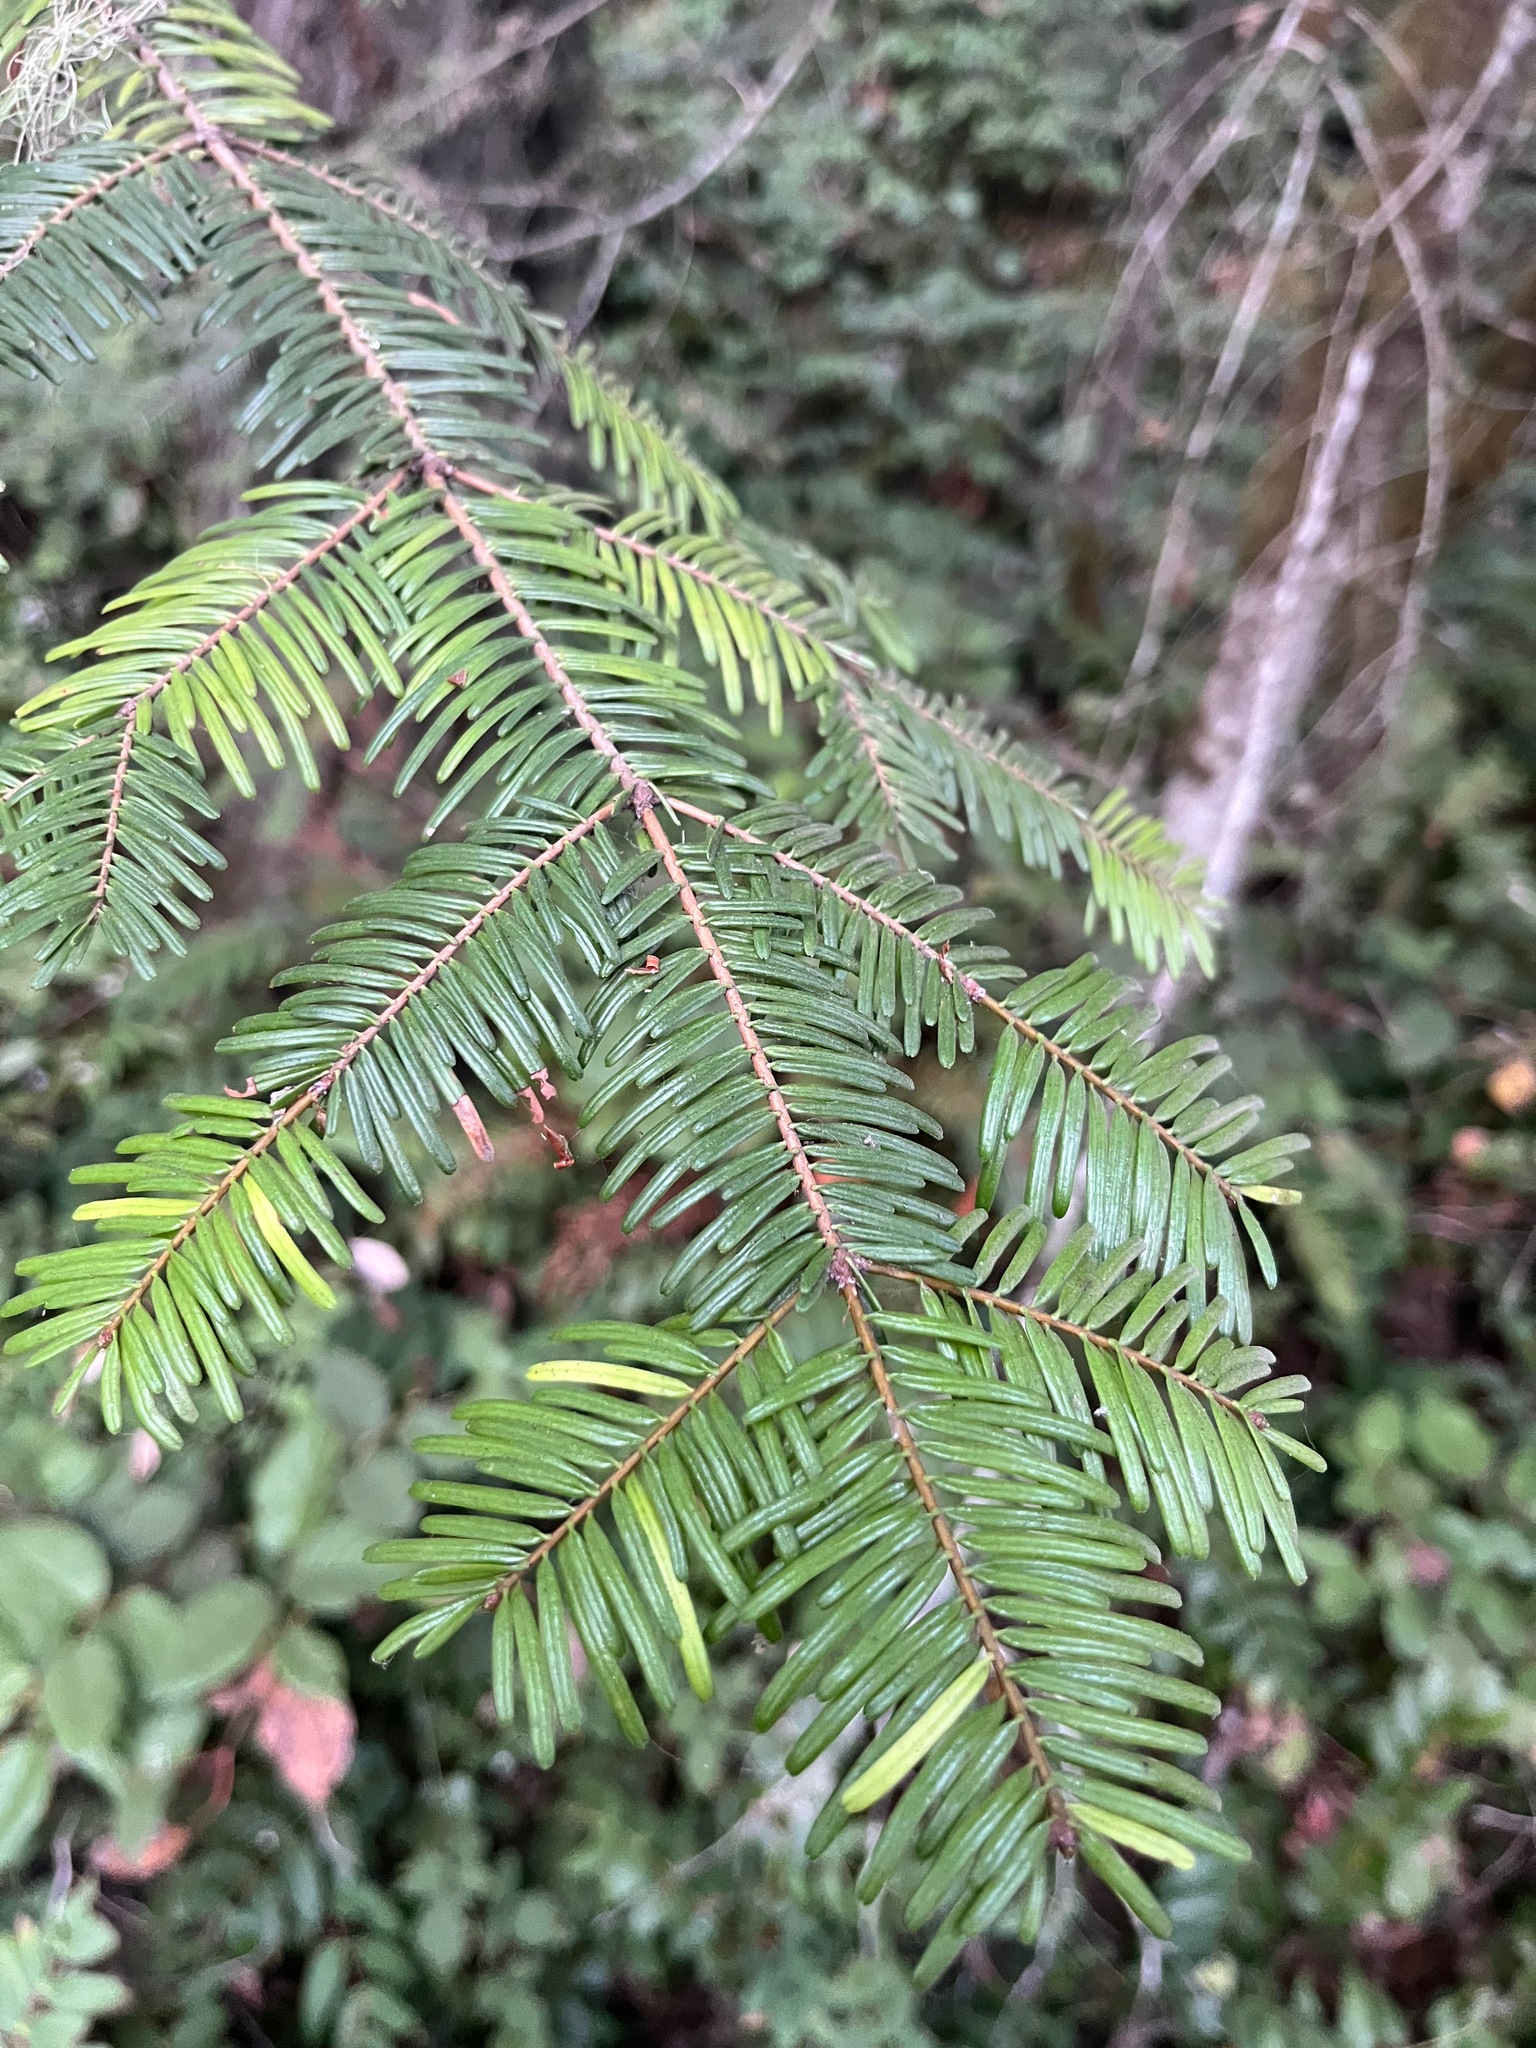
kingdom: Plantae
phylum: Tracheophyta
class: Pinopsida
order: Pinales
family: Pinaceae
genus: Abies
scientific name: Abies grandis
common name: Giant fir
